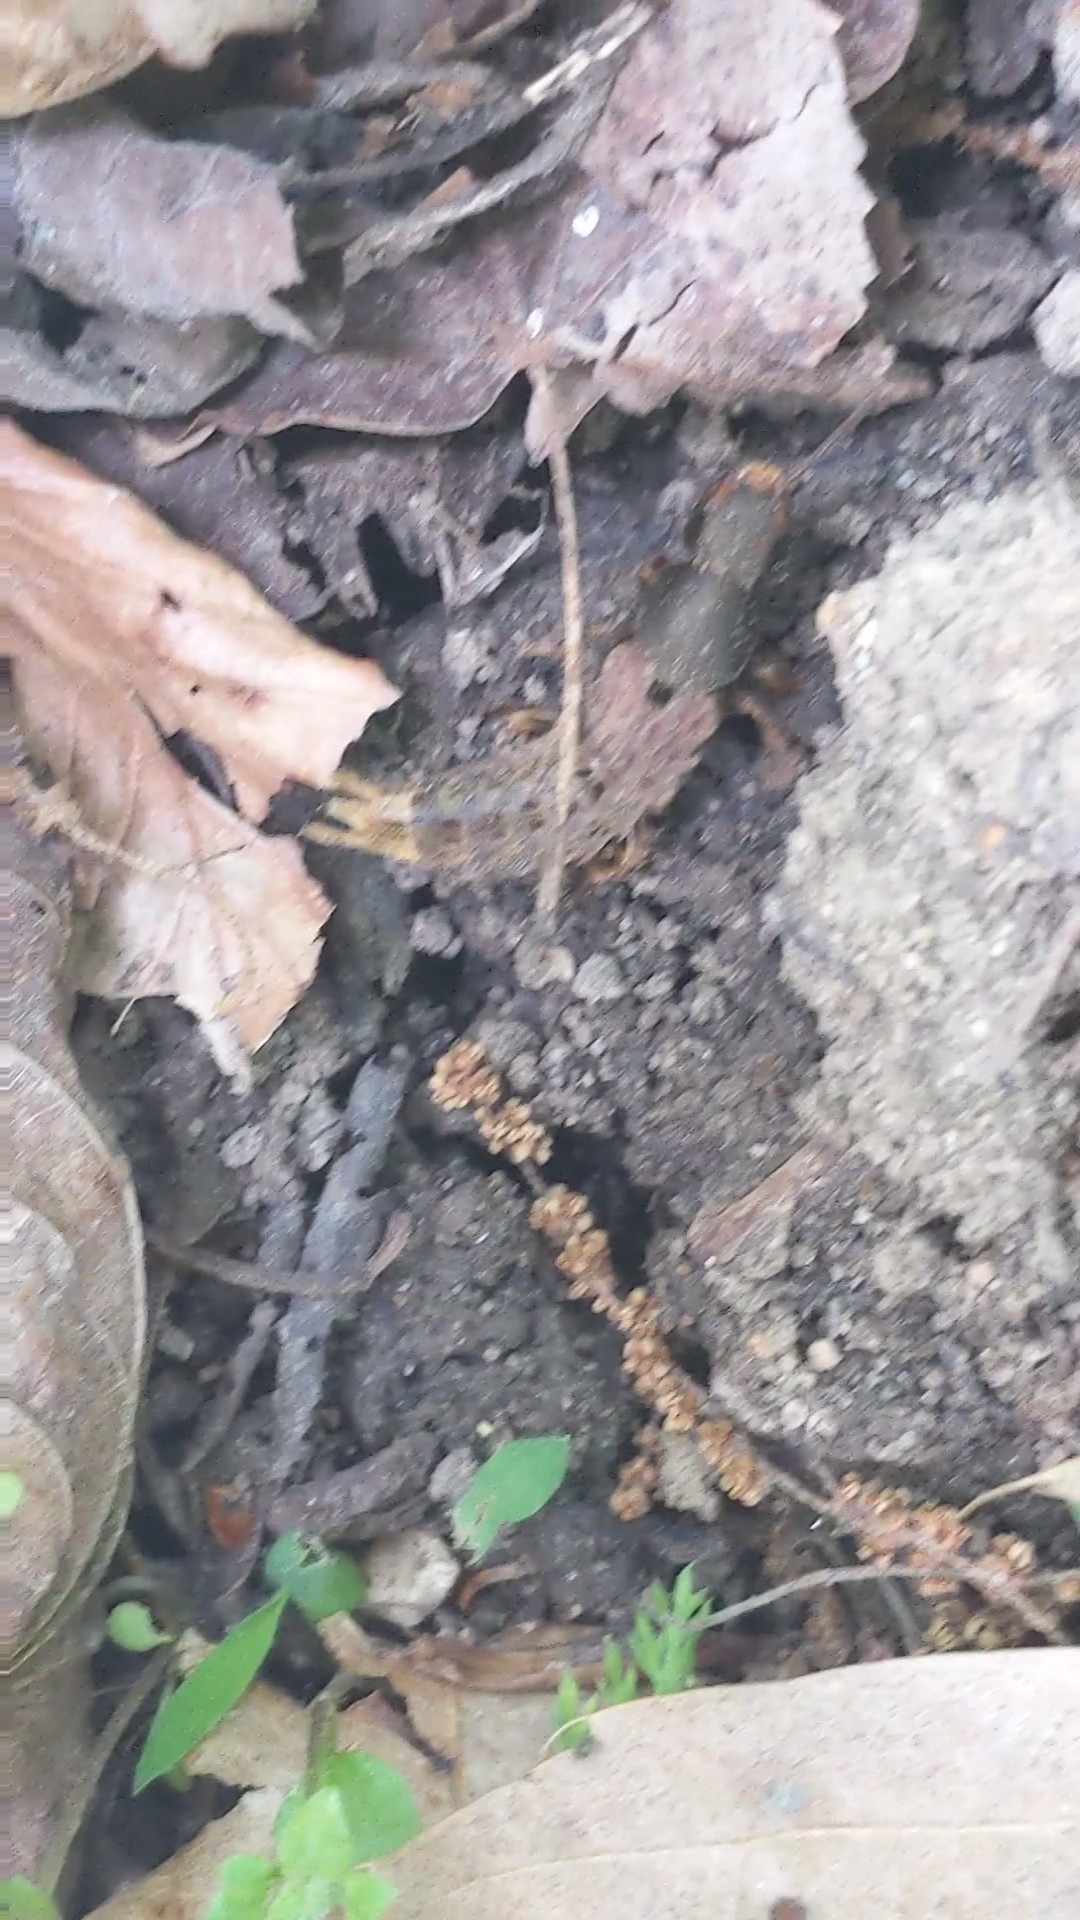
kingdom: Animalia
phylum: Arthropoda
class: Insecta
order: Coleoptera
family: Staphylinidae
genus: Platydracus
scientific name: Platydracus maculosus
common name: Brown rove beetle
